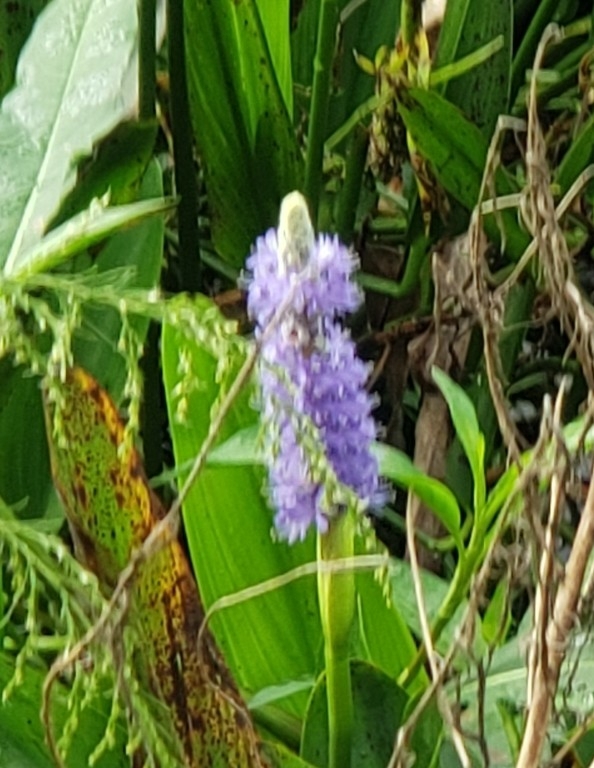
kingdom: Plantae
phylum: Tracheophyta
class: Liliopsida
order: Commelinales
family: Pontederiaceae
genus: Pontederia
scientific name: Pontederia cordata
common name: Pickerelweed
